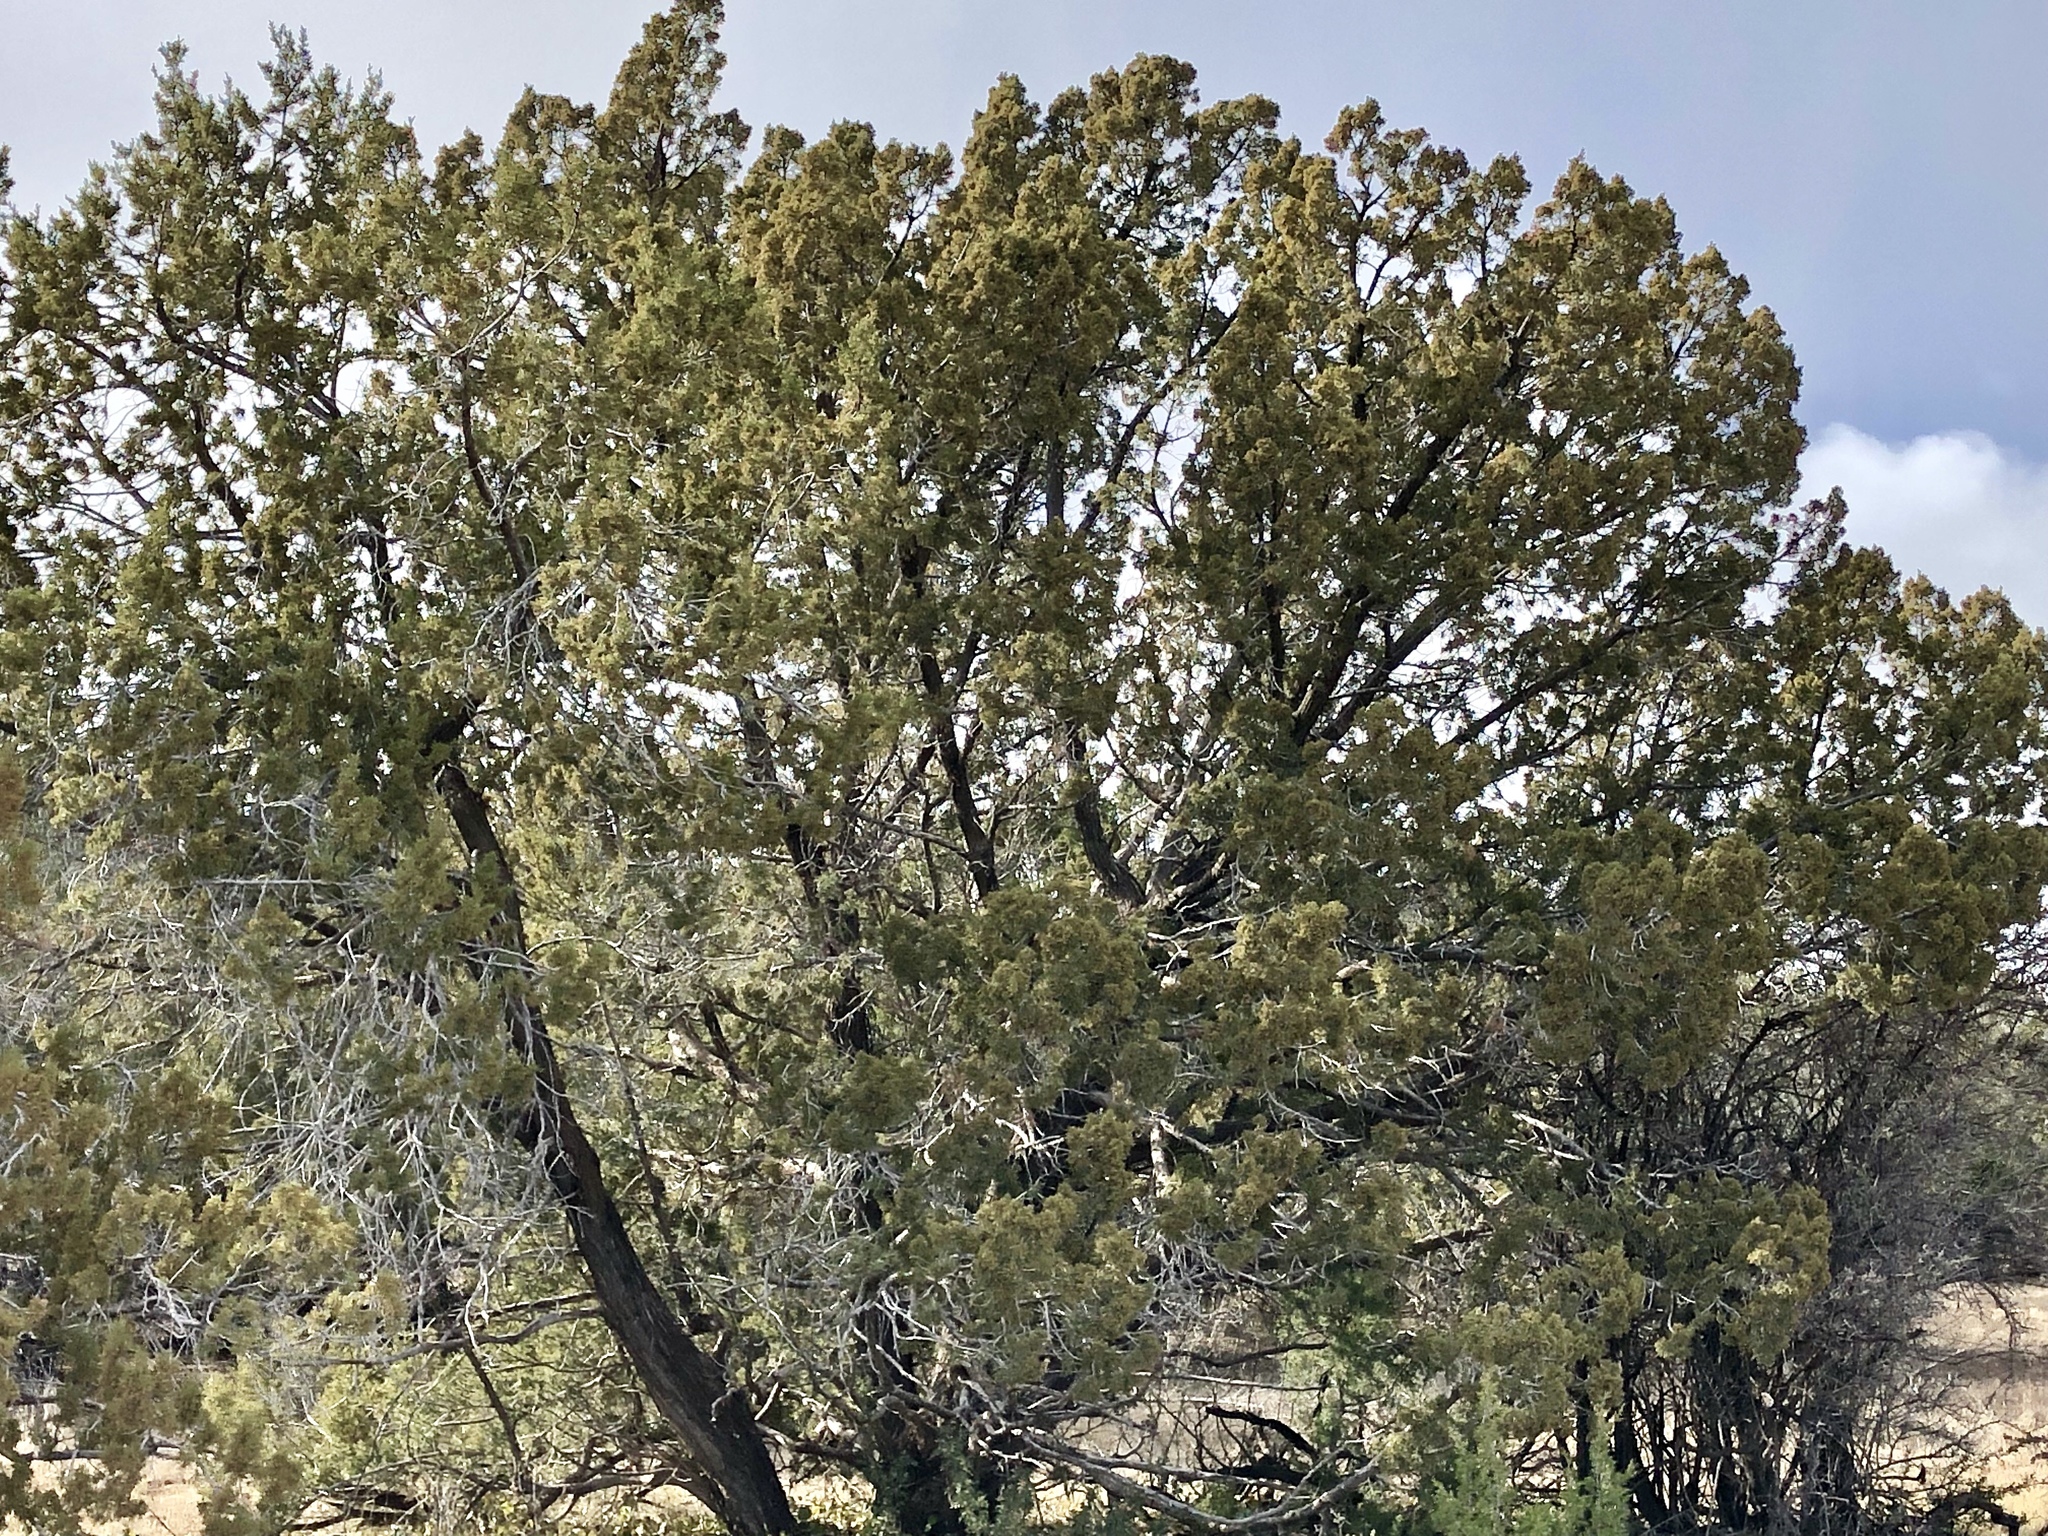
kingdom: Plantae
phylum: Tracheophyta
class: Pinopsida
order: Pinales
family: Cupressaceae
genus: Juniperus
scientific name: Juniperus monosperma
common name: One-seed juniper
